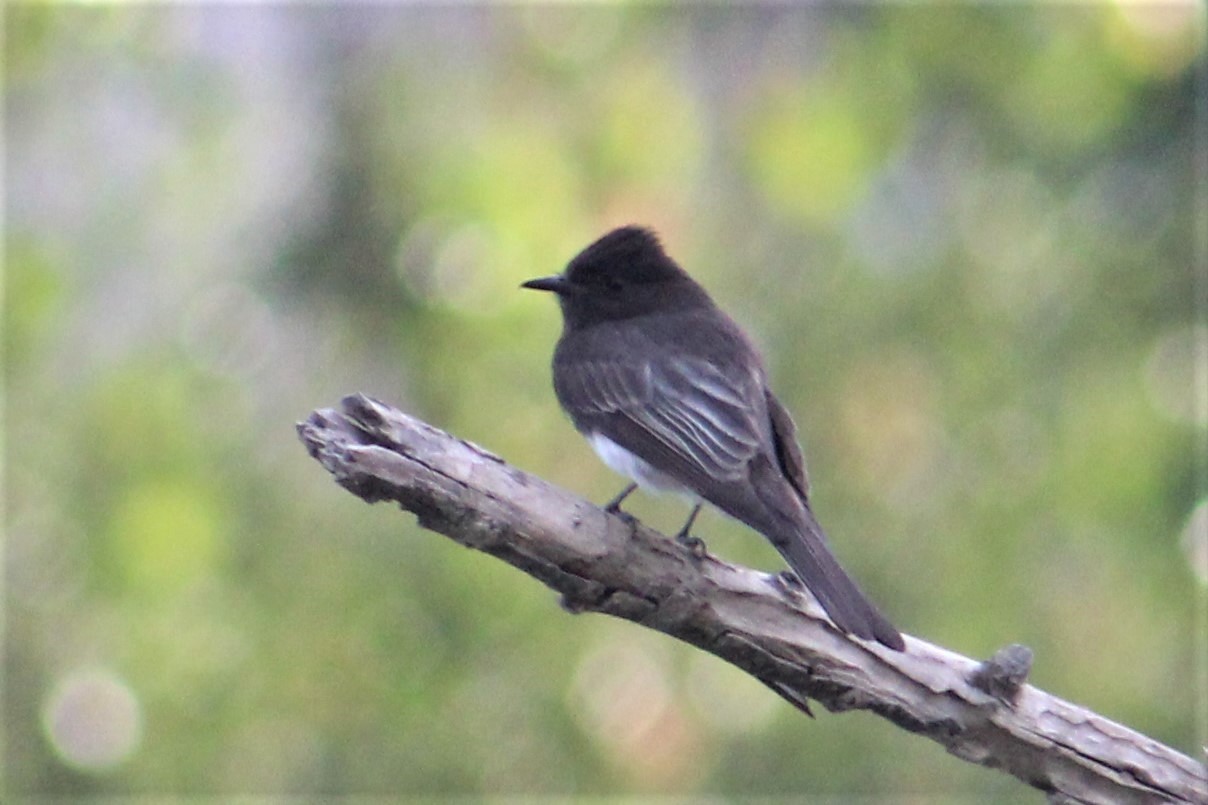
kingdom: Animalia
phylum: Chordata
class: Aves
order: Passeriformes
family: Tyrannidae
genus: Sayornis
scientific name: Sayornis nigricans
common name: Black phoebe
